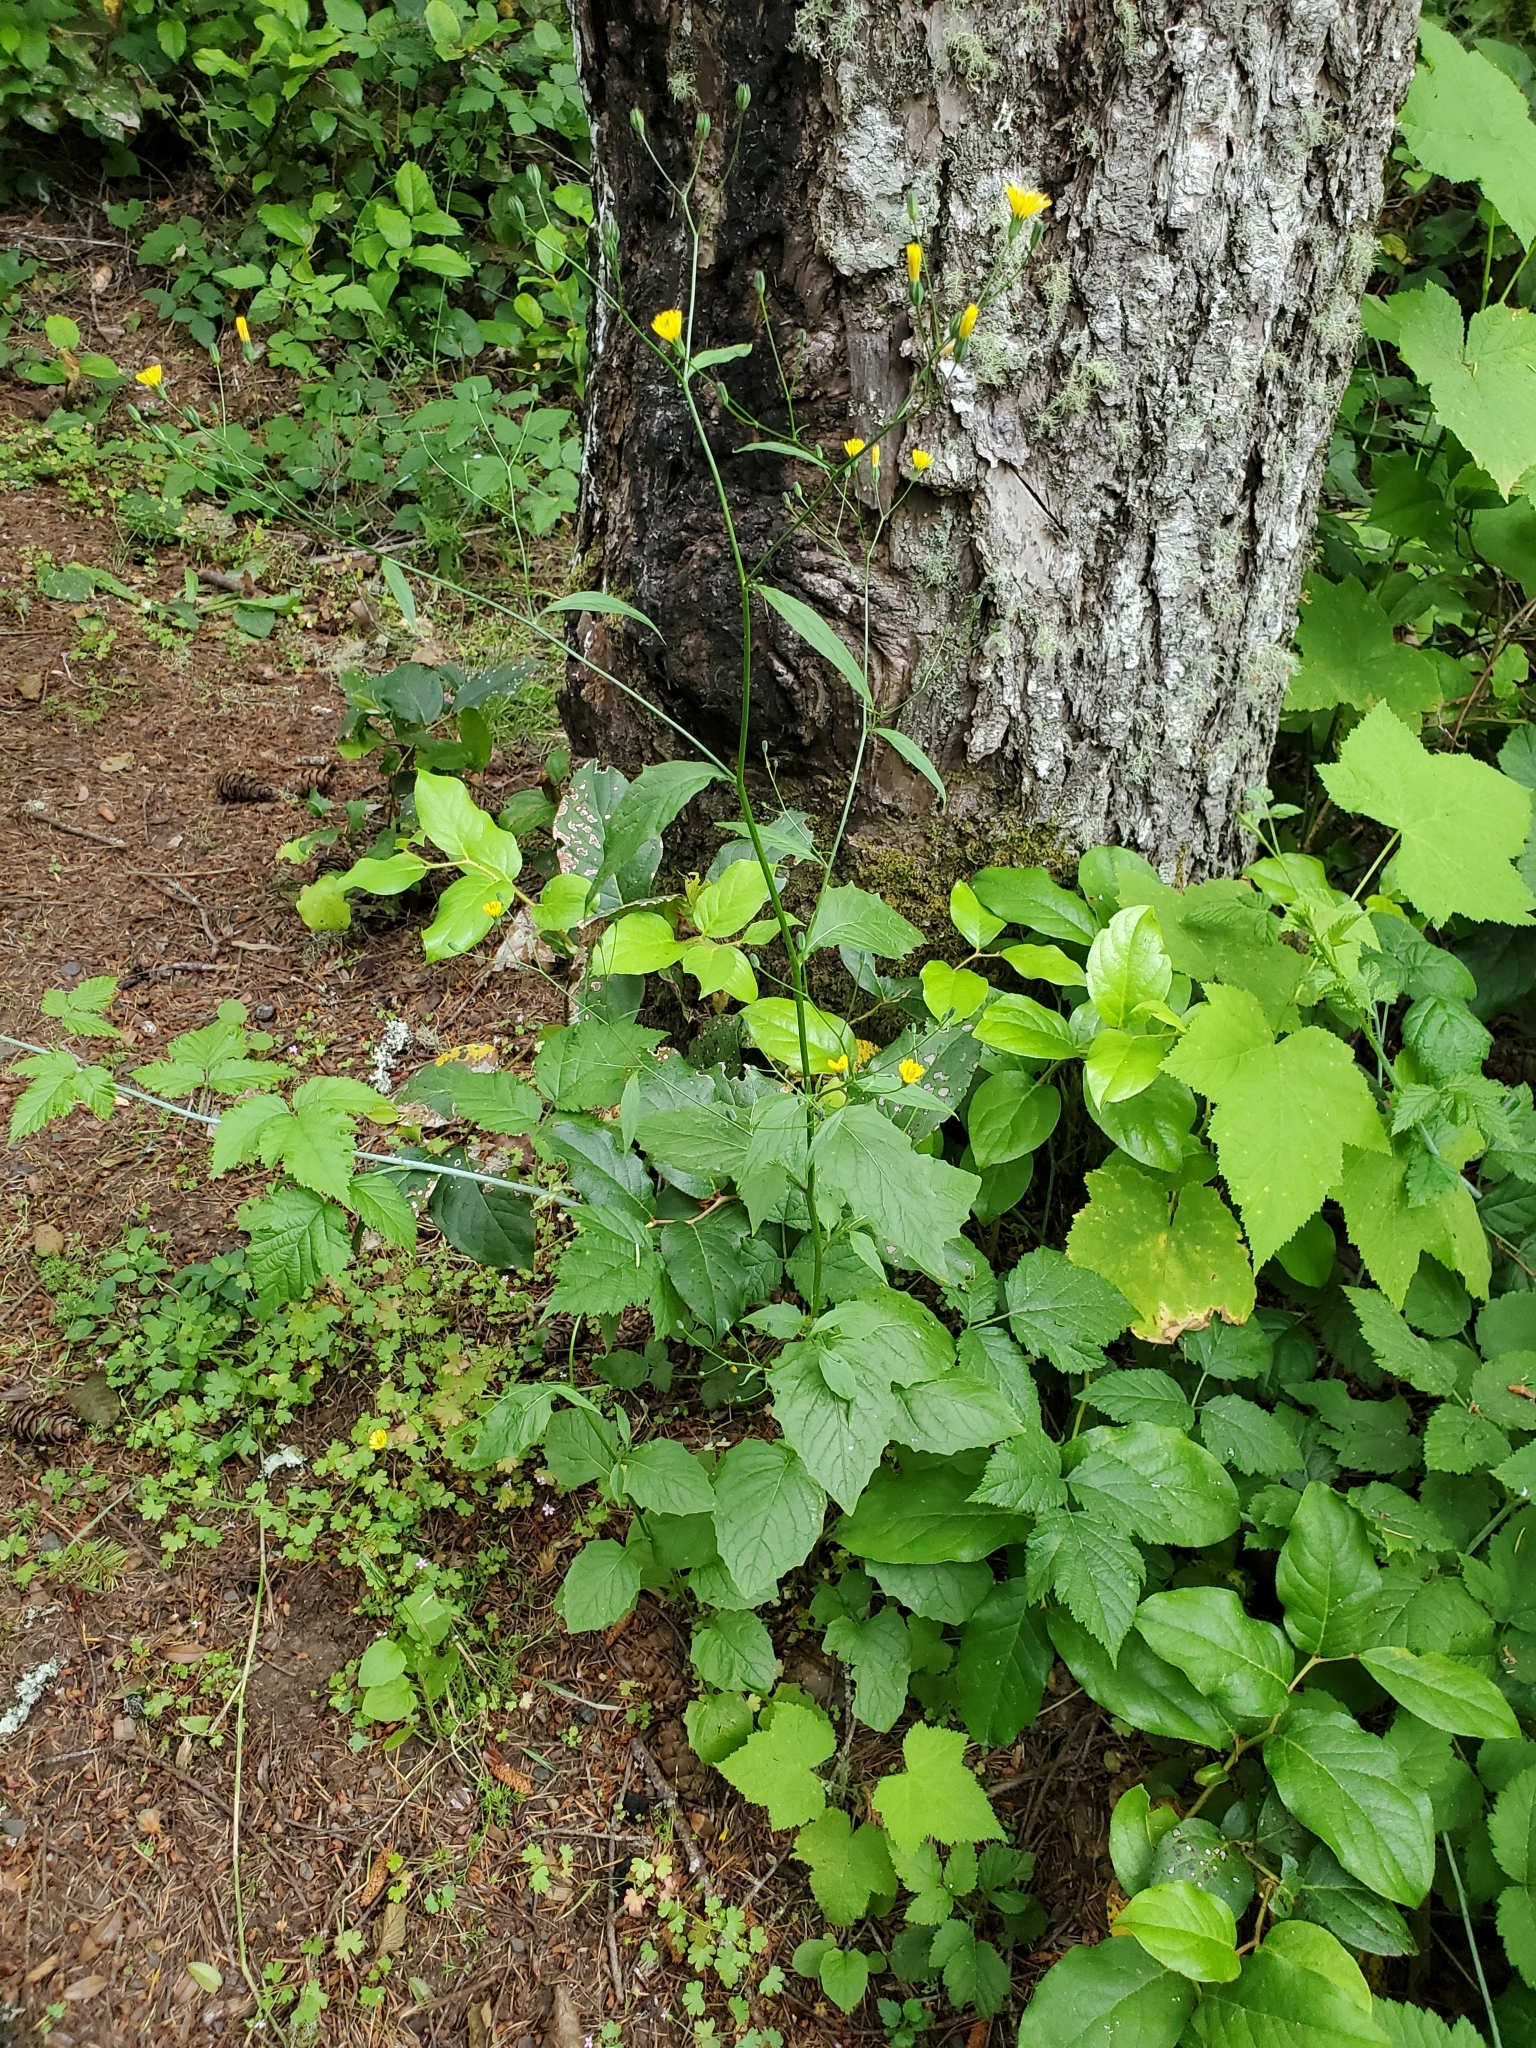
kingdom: Plantae
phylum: Tracheophyta
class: Magnoliopsida
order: Asterales
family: Asteraceae
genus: Lapsana
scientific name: Lapsana communis
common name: Nipplewort
